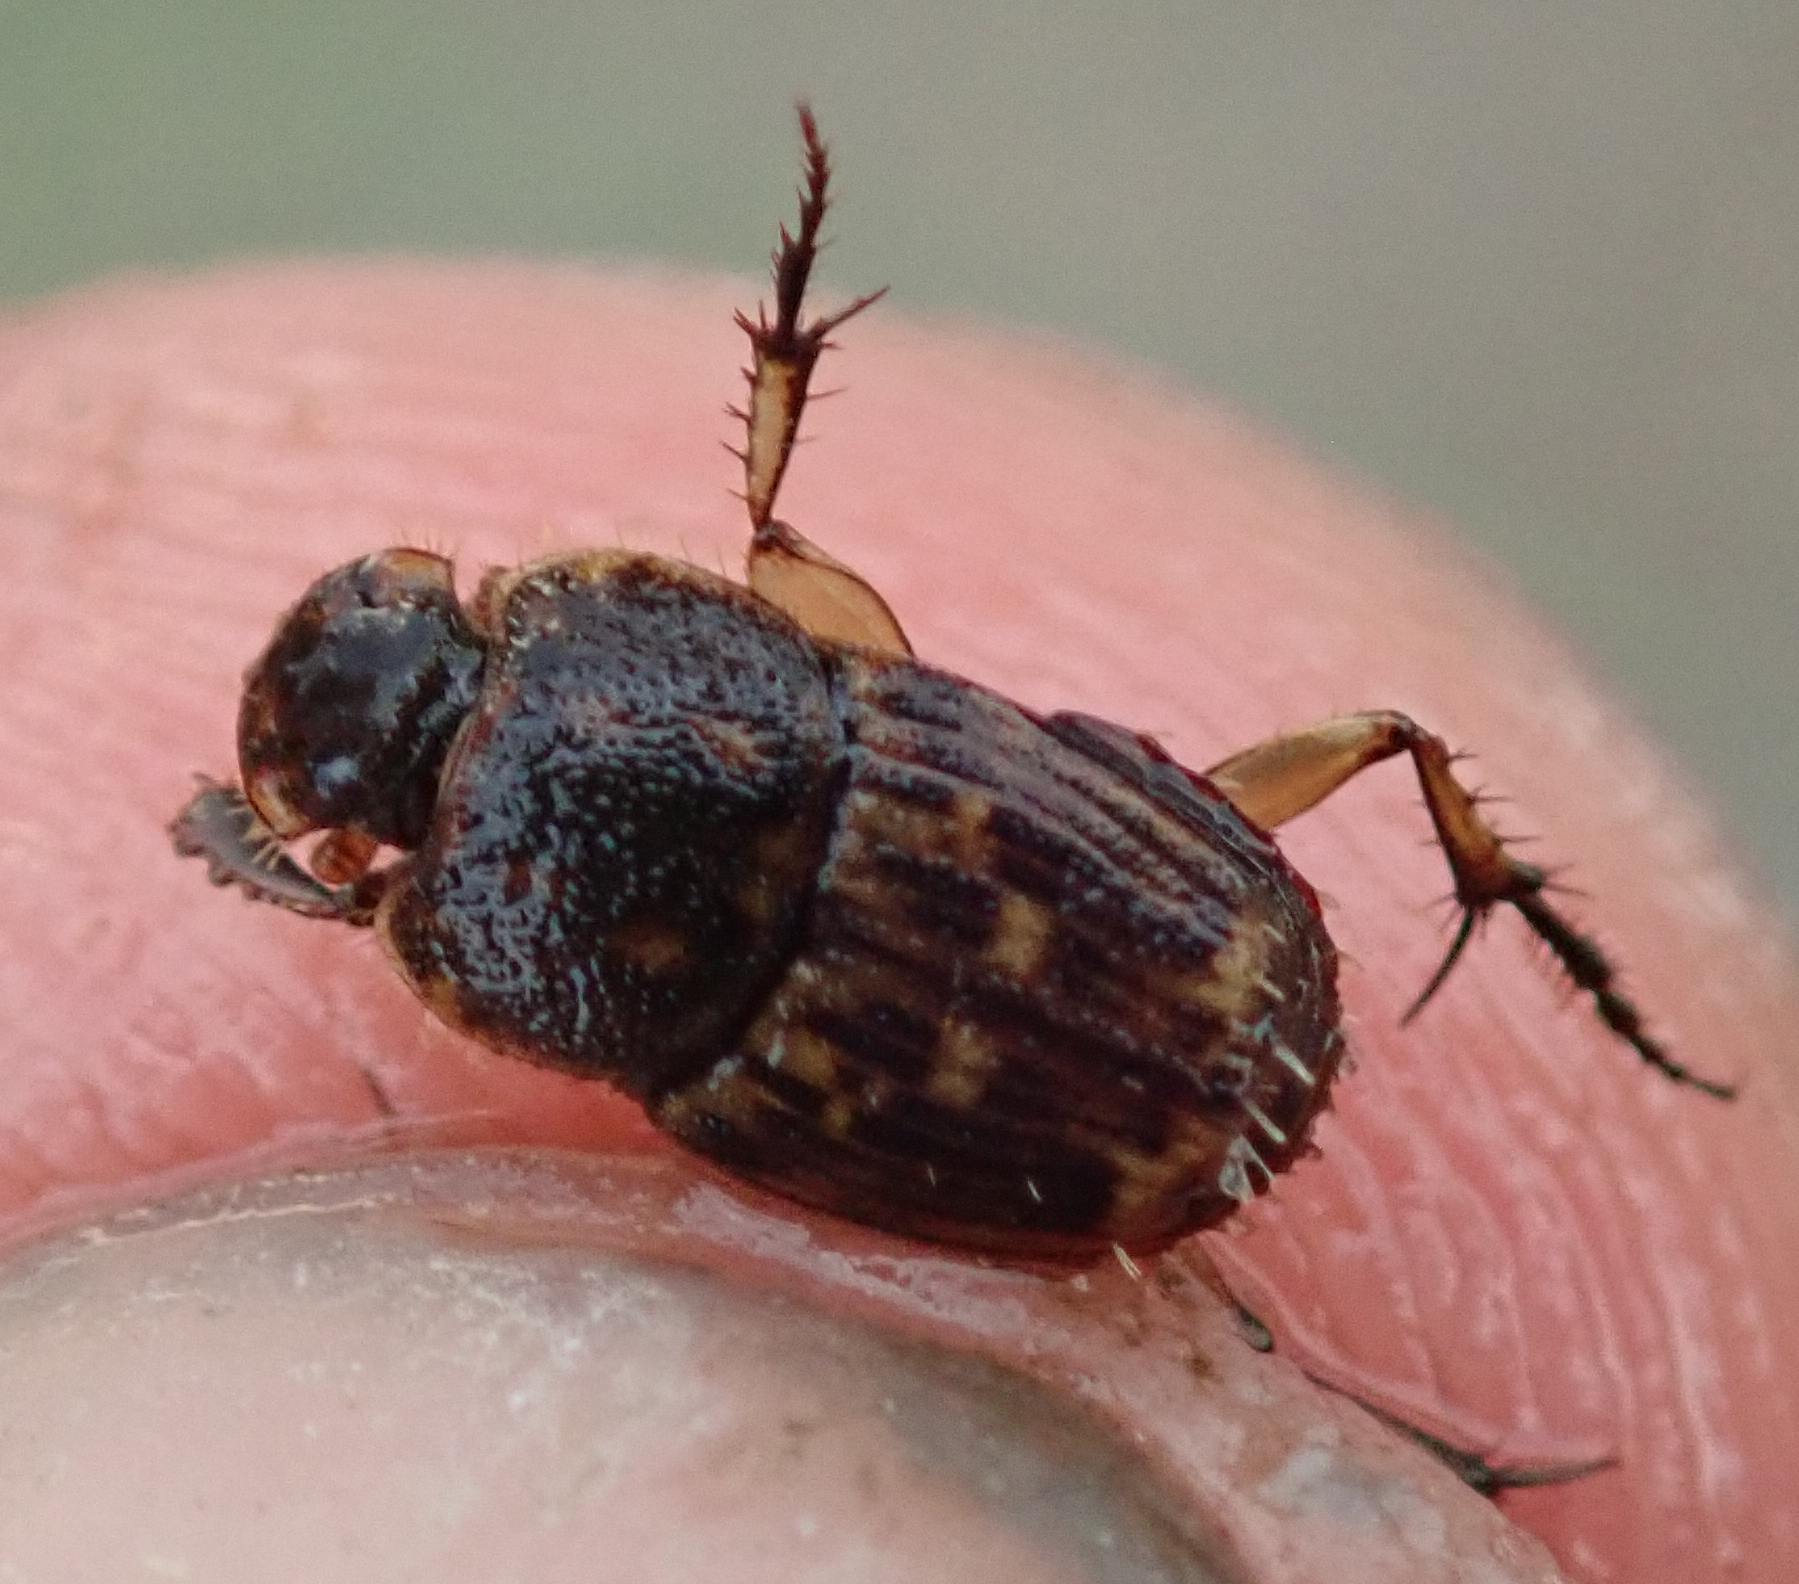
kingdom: Animalia
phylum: Arthropoda
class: Insecta
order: Coleoptera
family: Scarabaeidae
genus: Tiniocellus
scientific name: Tiniocellus spinipes
